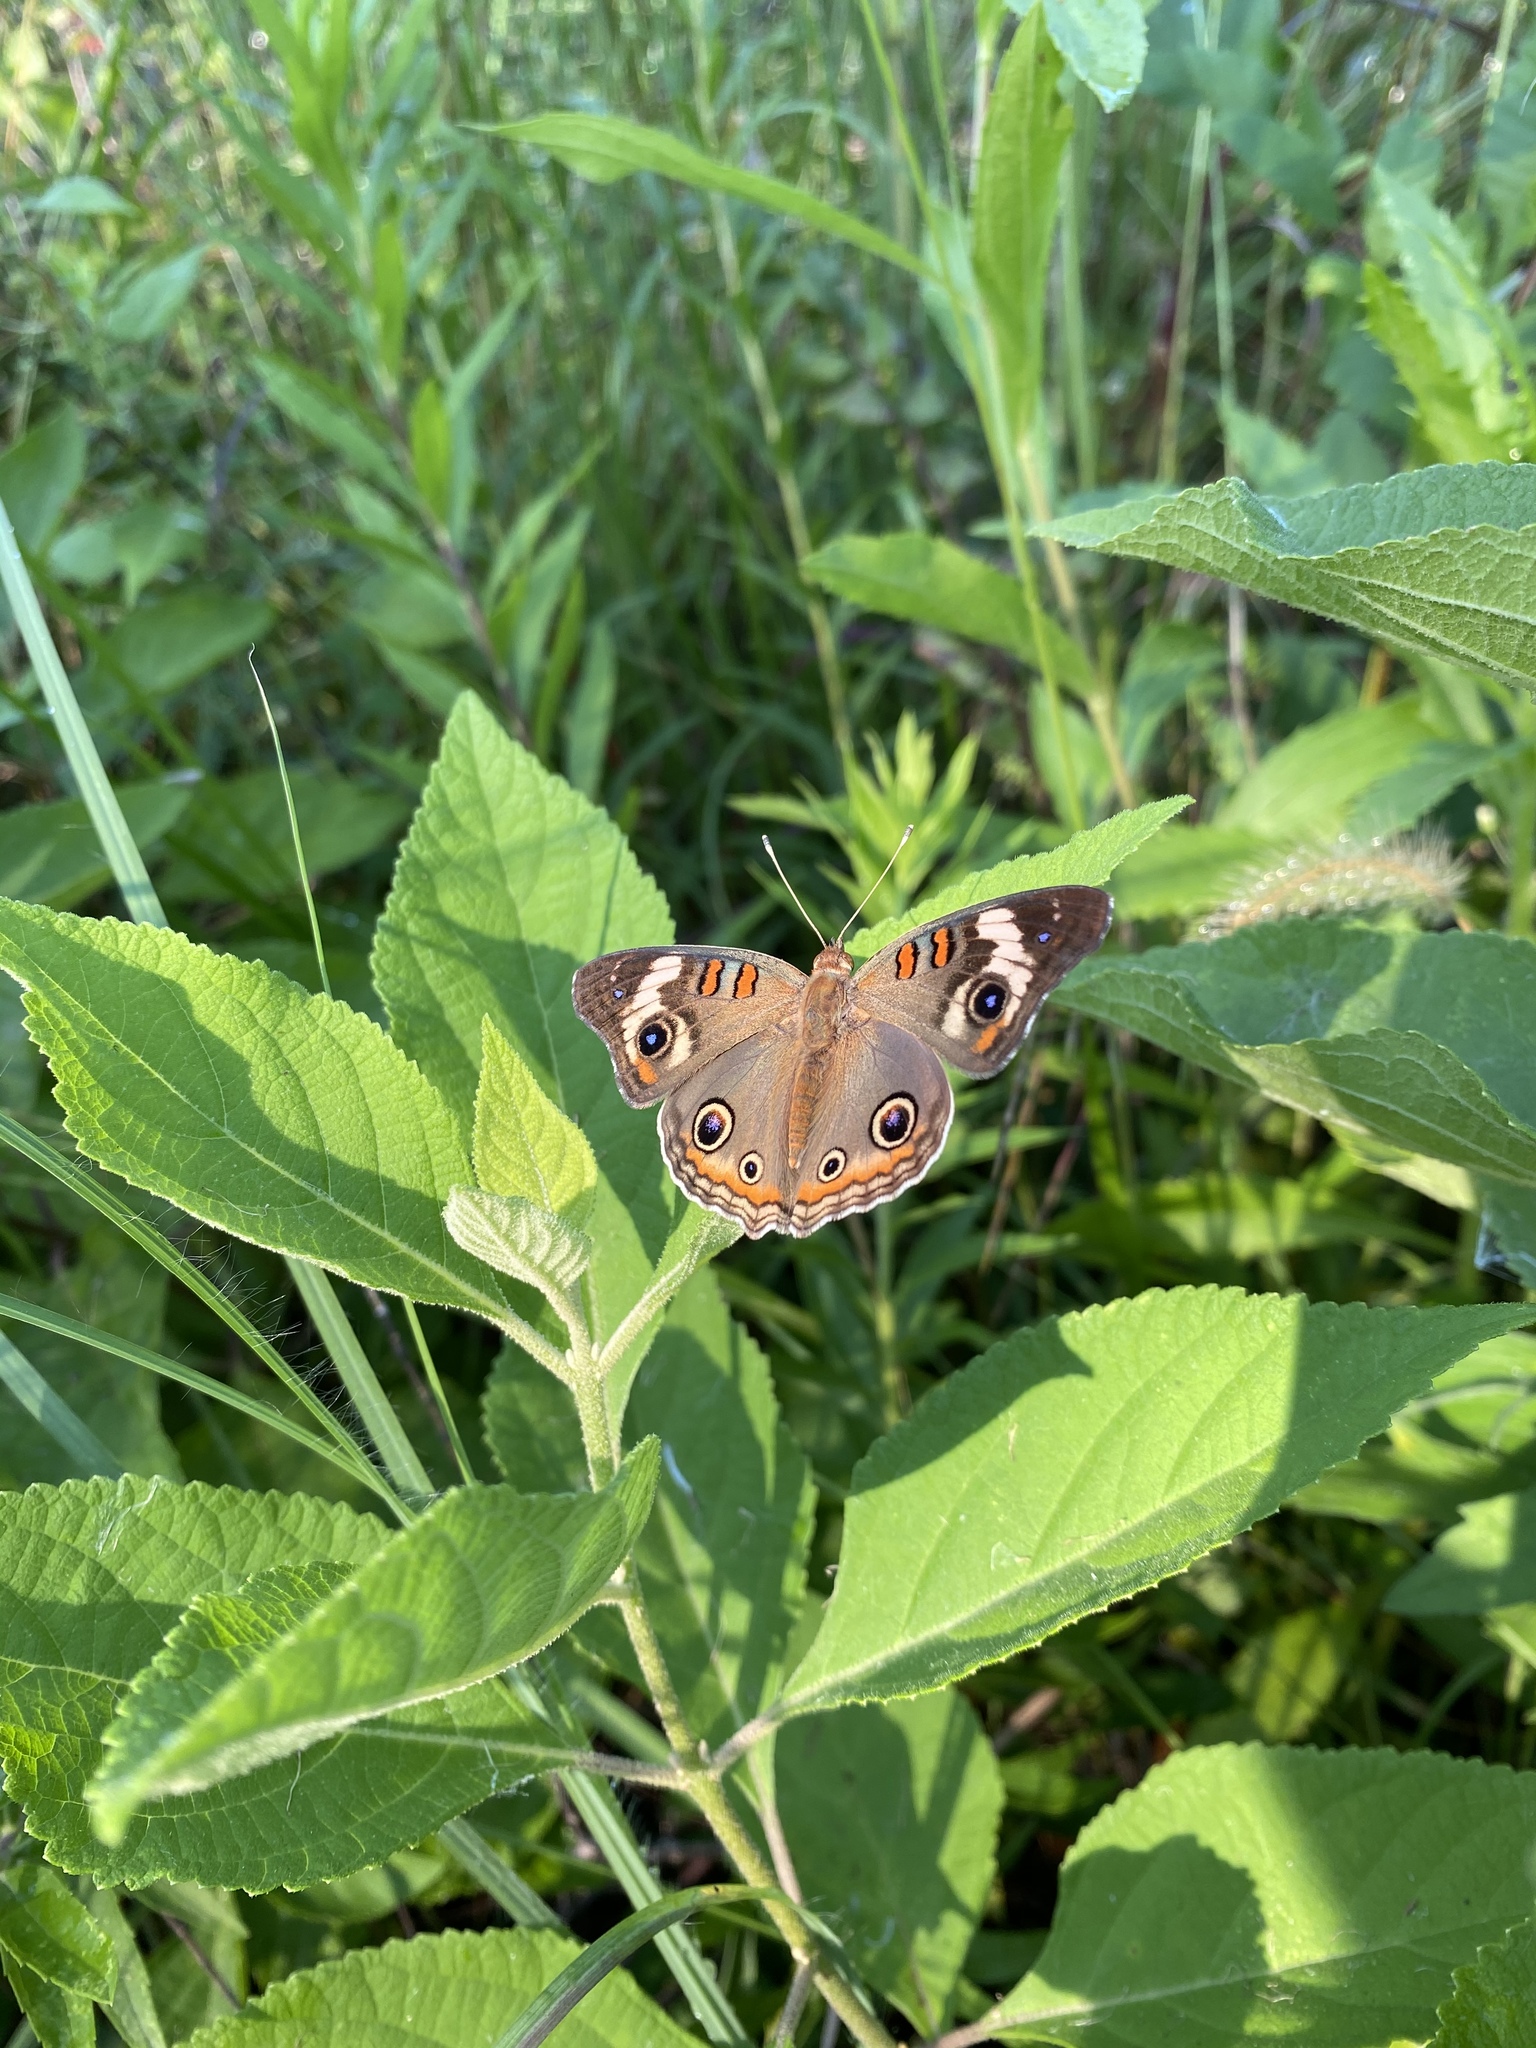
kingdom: Animalia
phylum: Arthropoda
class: Insecta
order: Lepidoptera
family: Nymphalidae
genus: Junonia
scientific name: Junonia coenia
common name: Common buckeye
